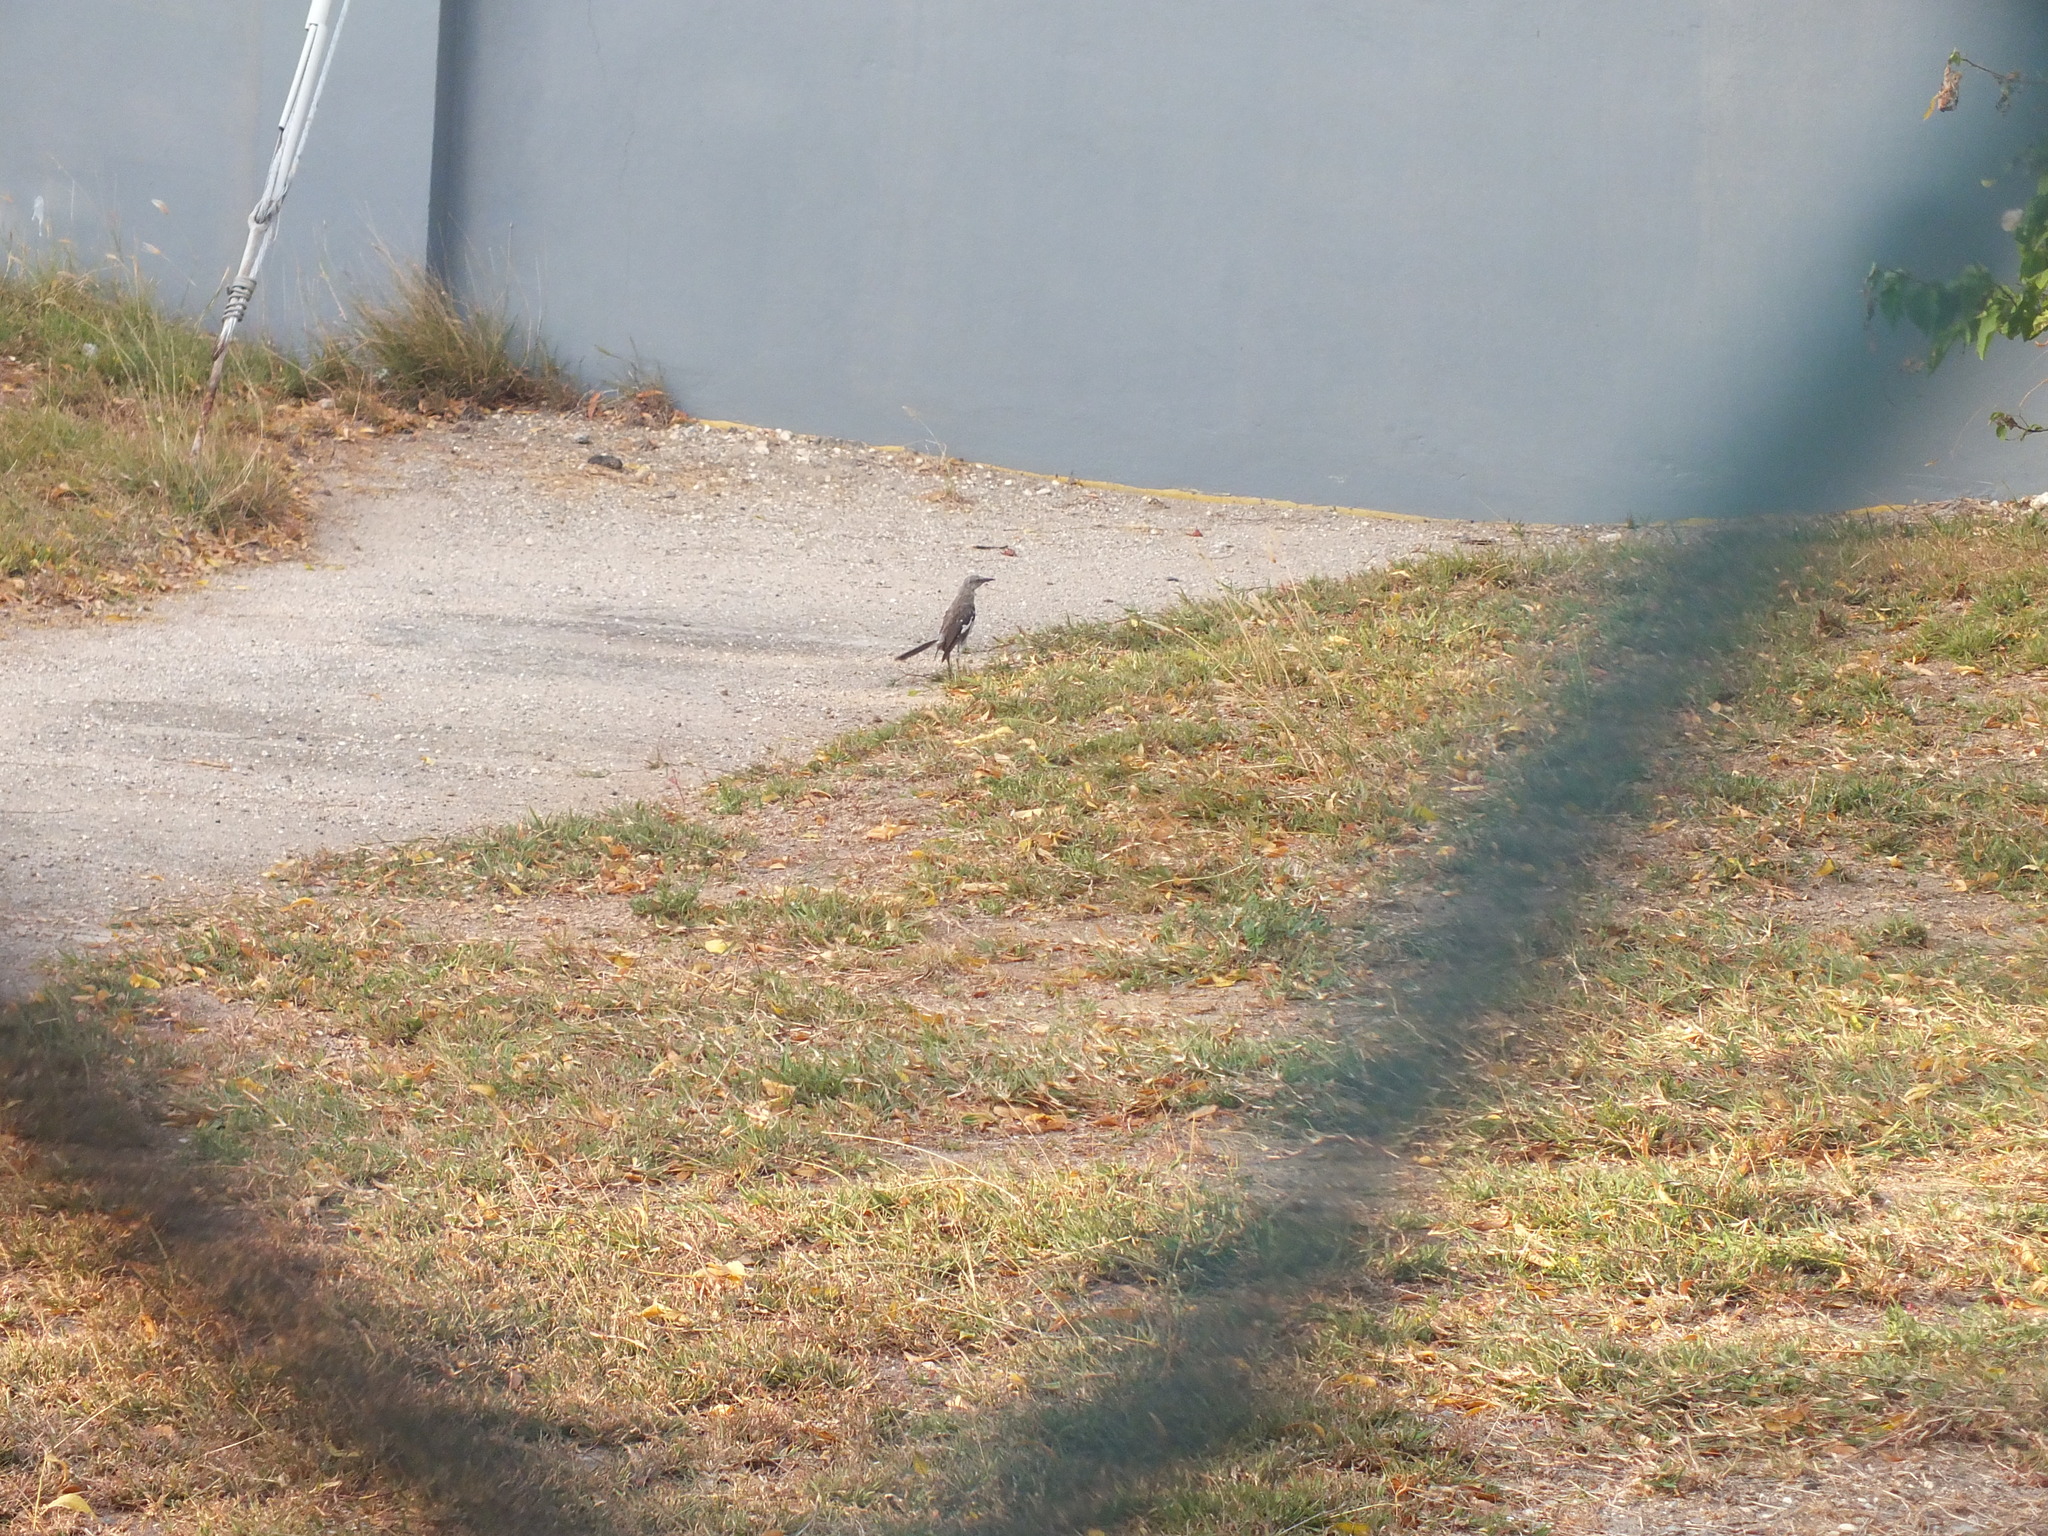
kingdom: Animalia
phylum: Chordata
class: Aves
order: Passeriformes
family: Mimidae
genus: Mimus
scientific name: Mimus polyglottos
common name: Northern mockingbird
